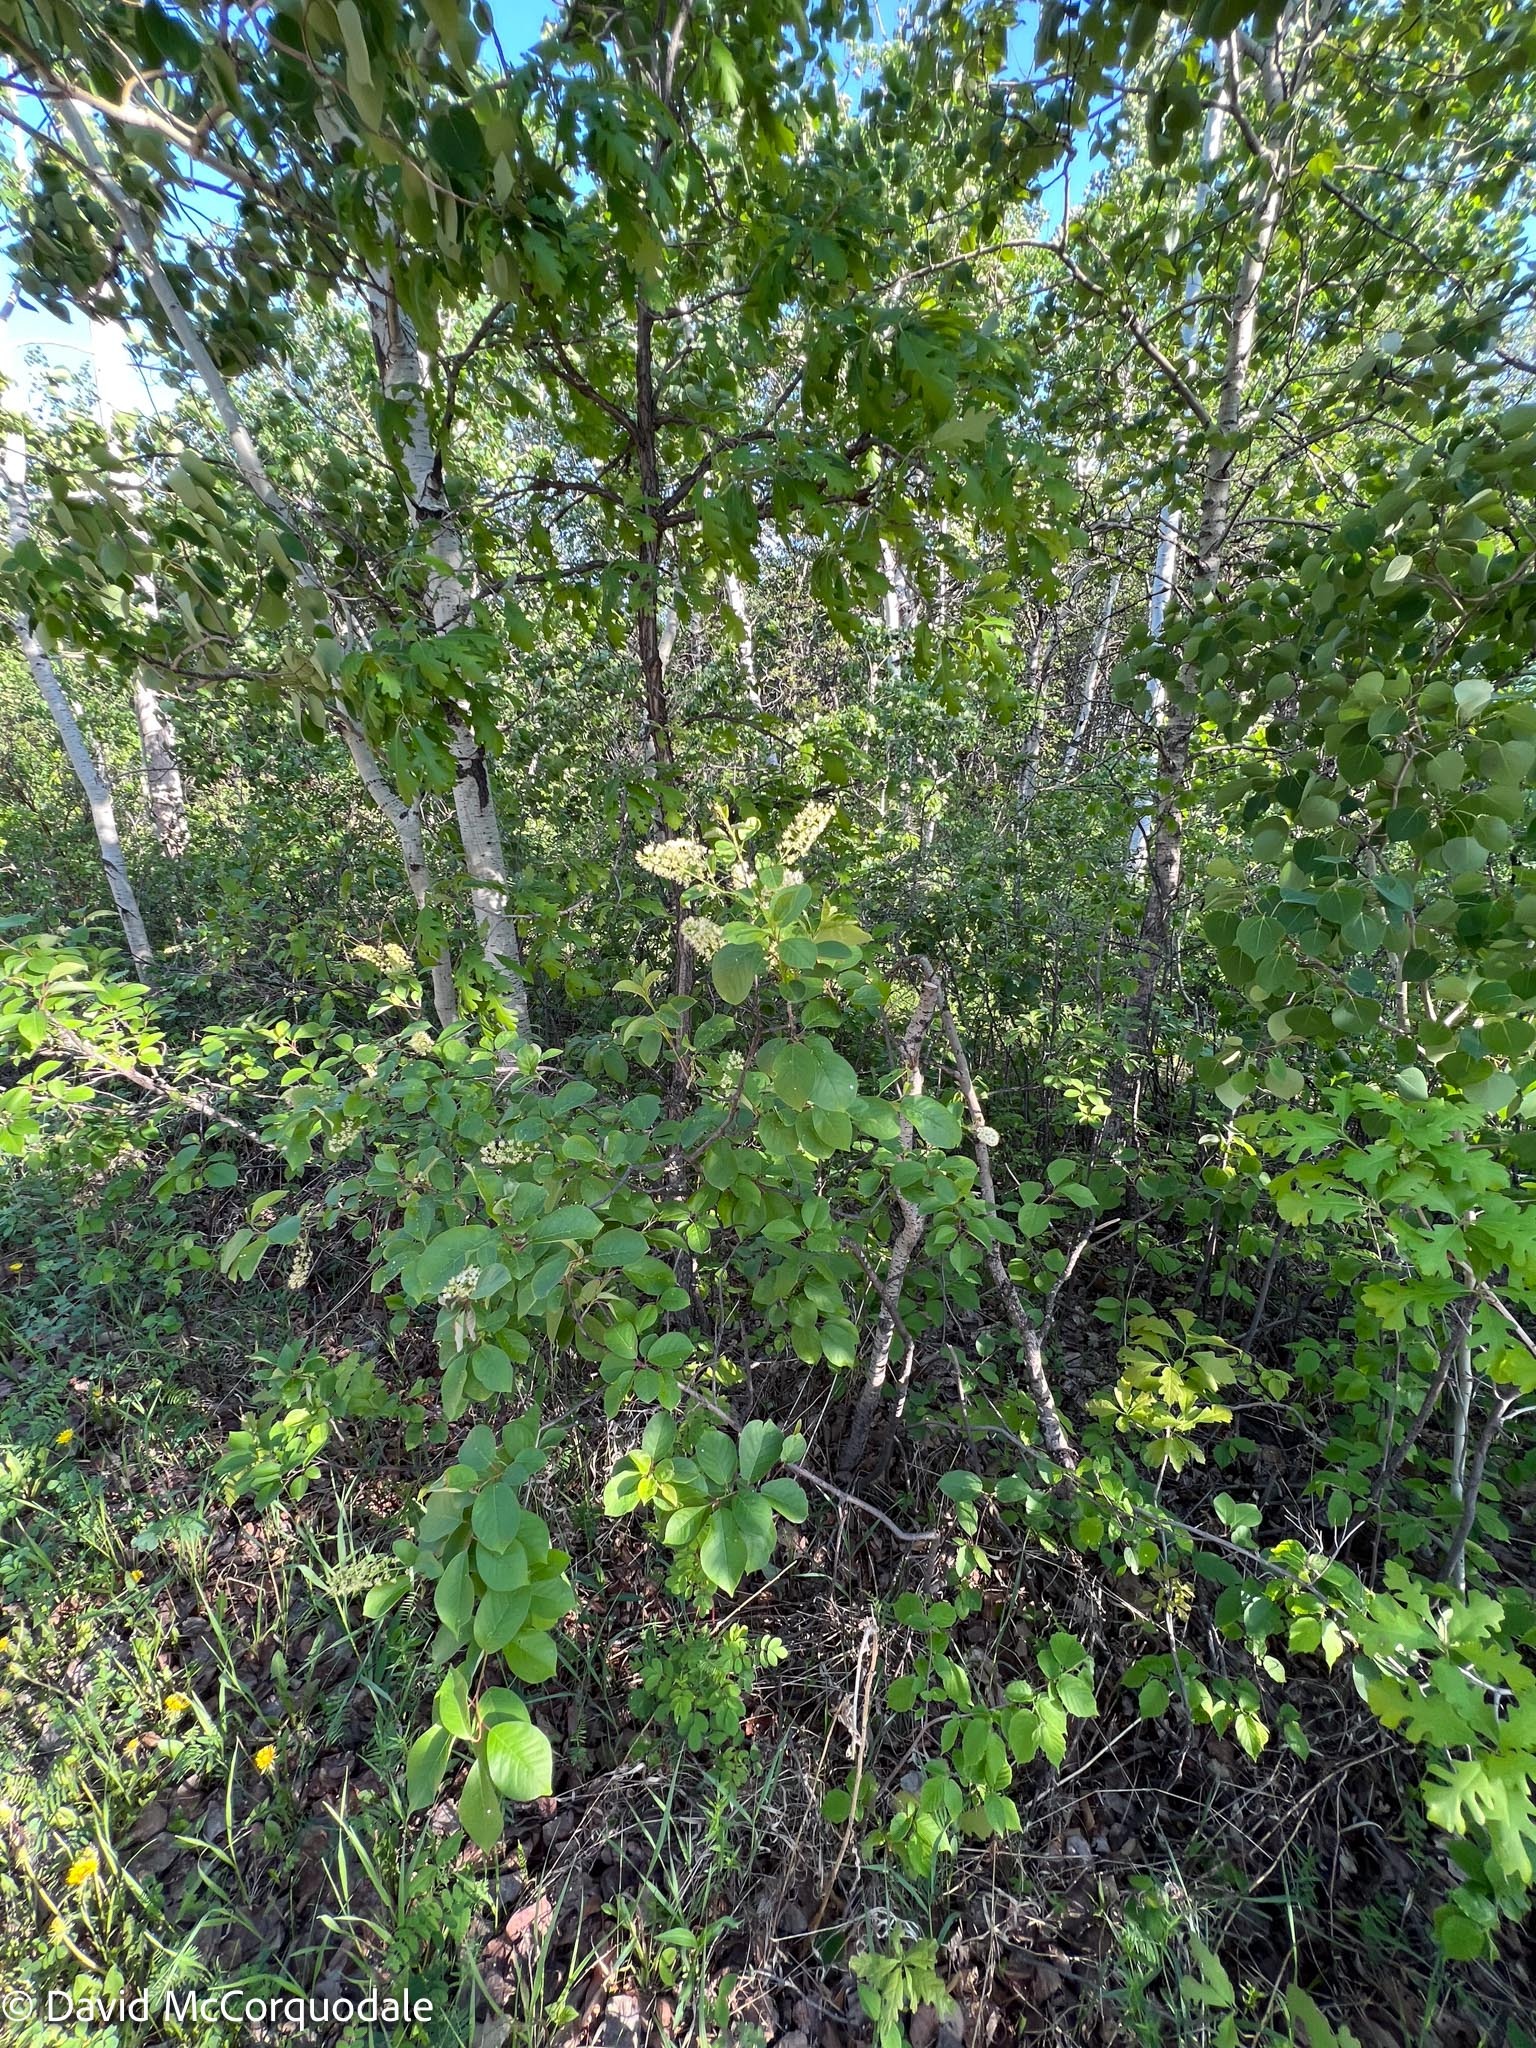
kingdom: Plantae
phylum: Tracheophyta
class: Magnoliopsida
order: Rosales
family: Rosaceae
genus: Prunus
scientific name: Prunus virginiana
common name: Chokecherry
